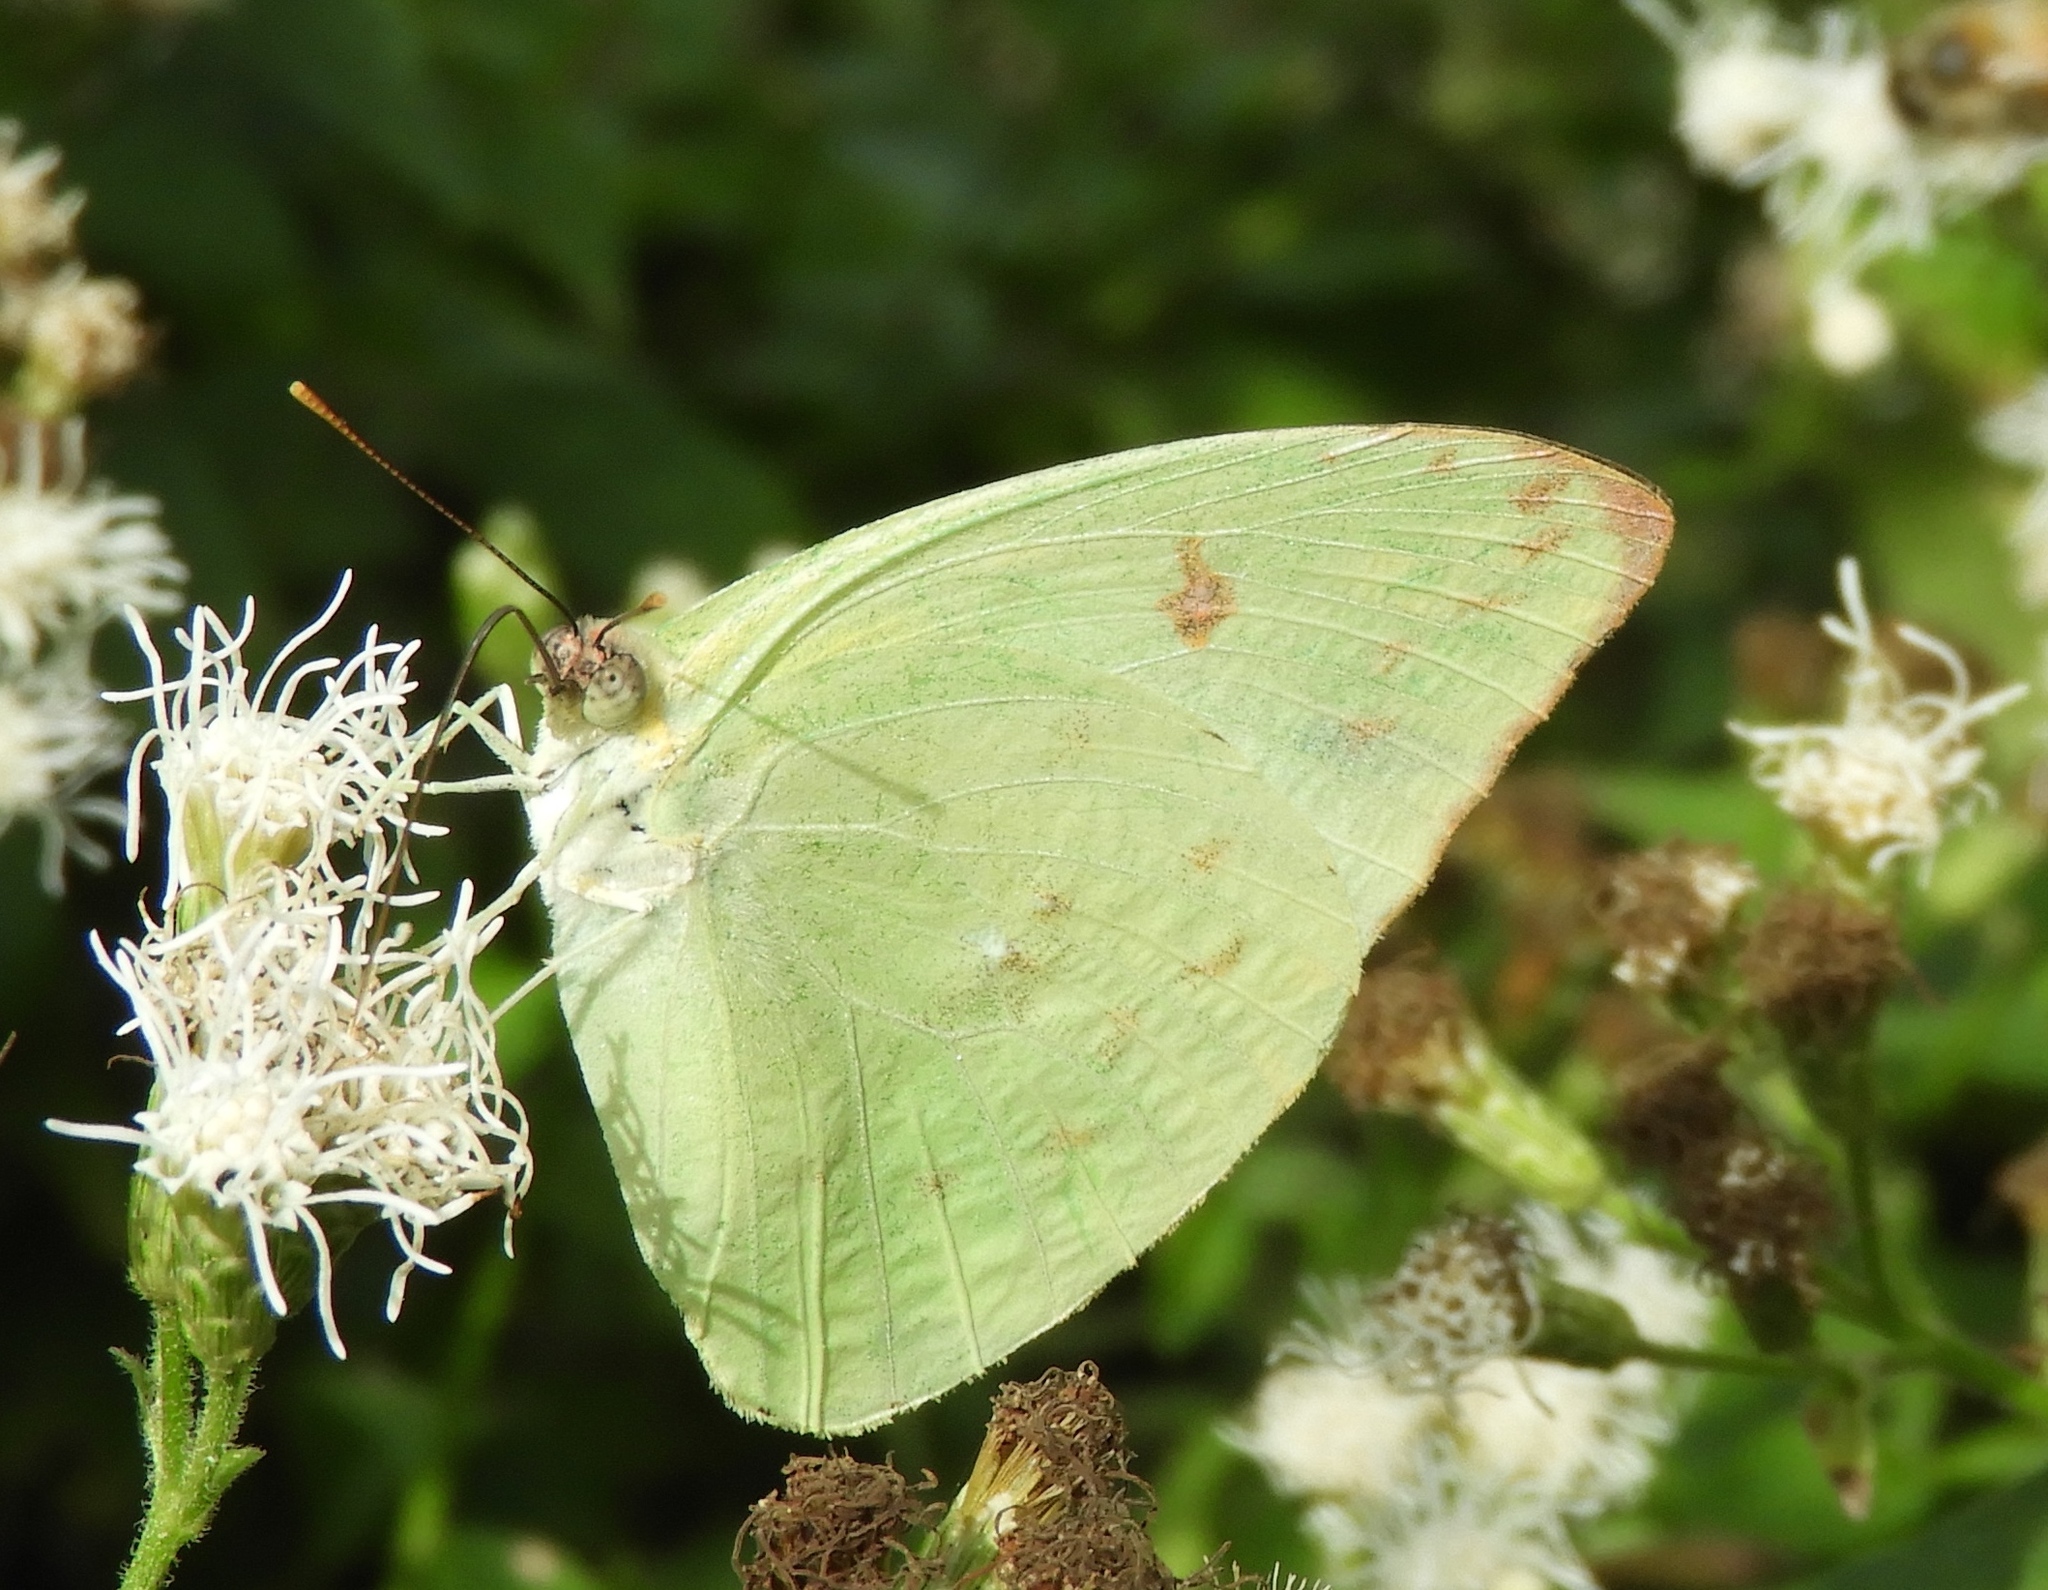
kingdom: Animalia
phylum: Arthropoda
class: Insecta
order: Lepidoptera
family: Pieridae
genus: Aphrissa
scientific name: Aphrissa statira
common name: Statira sulphur
